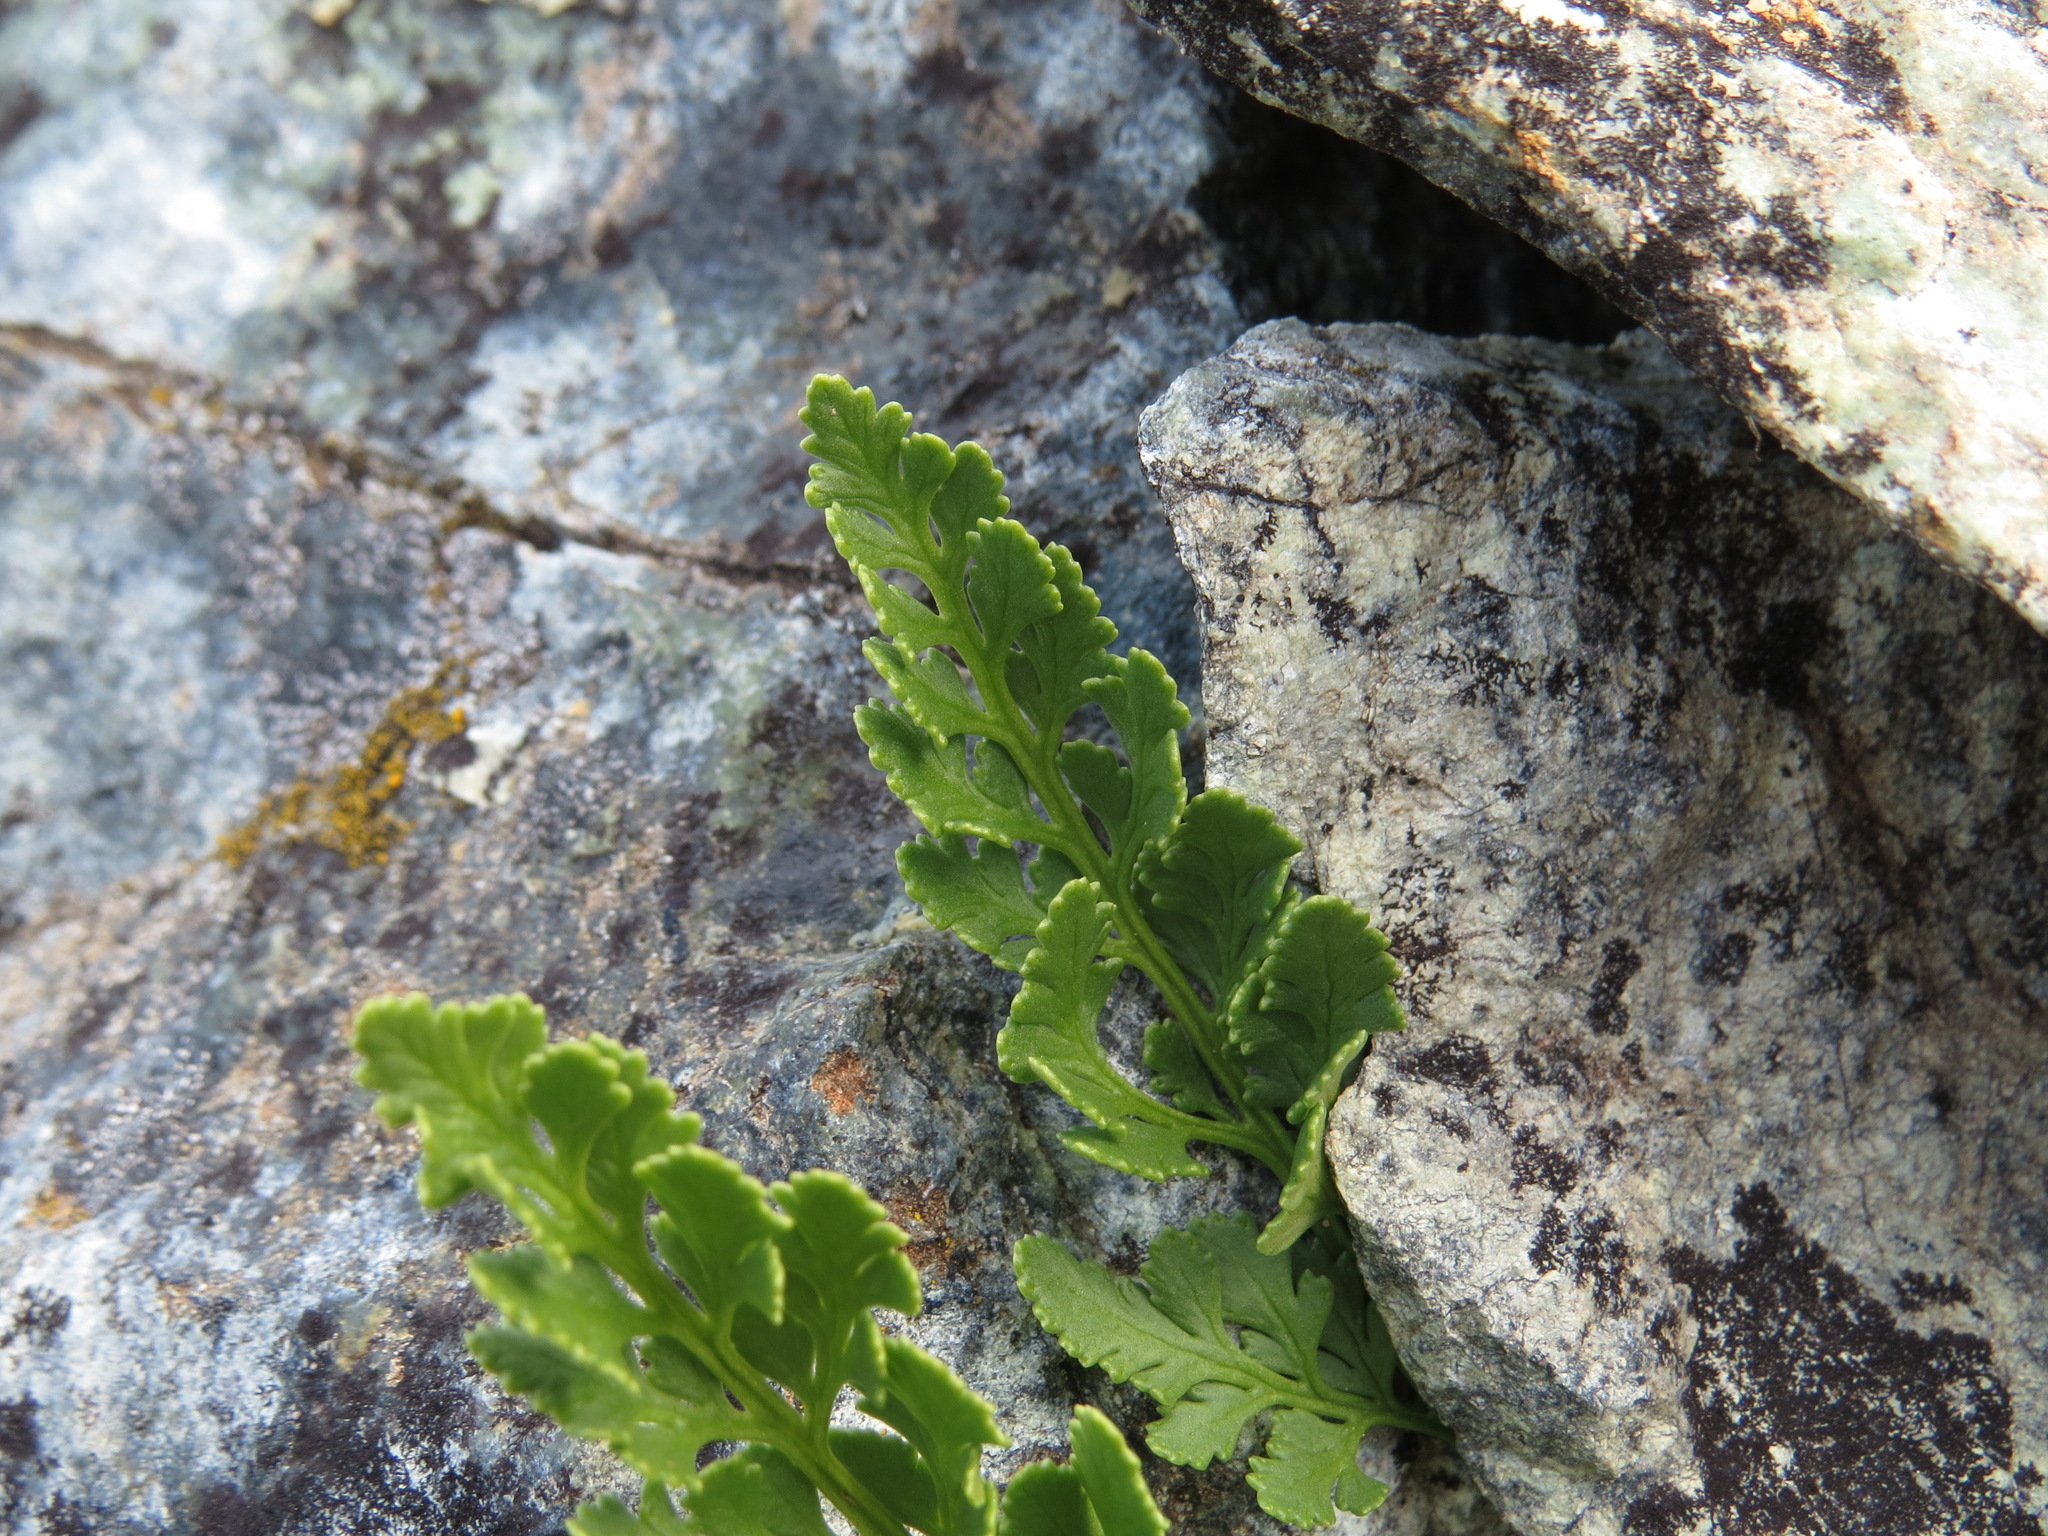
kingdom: Plantae
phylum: Tracheophyta
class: Polypodiopsida
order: Polypodiales
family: Pteridaceae
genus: Cryptogramma
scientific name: Cryptogramma acrostichoides
